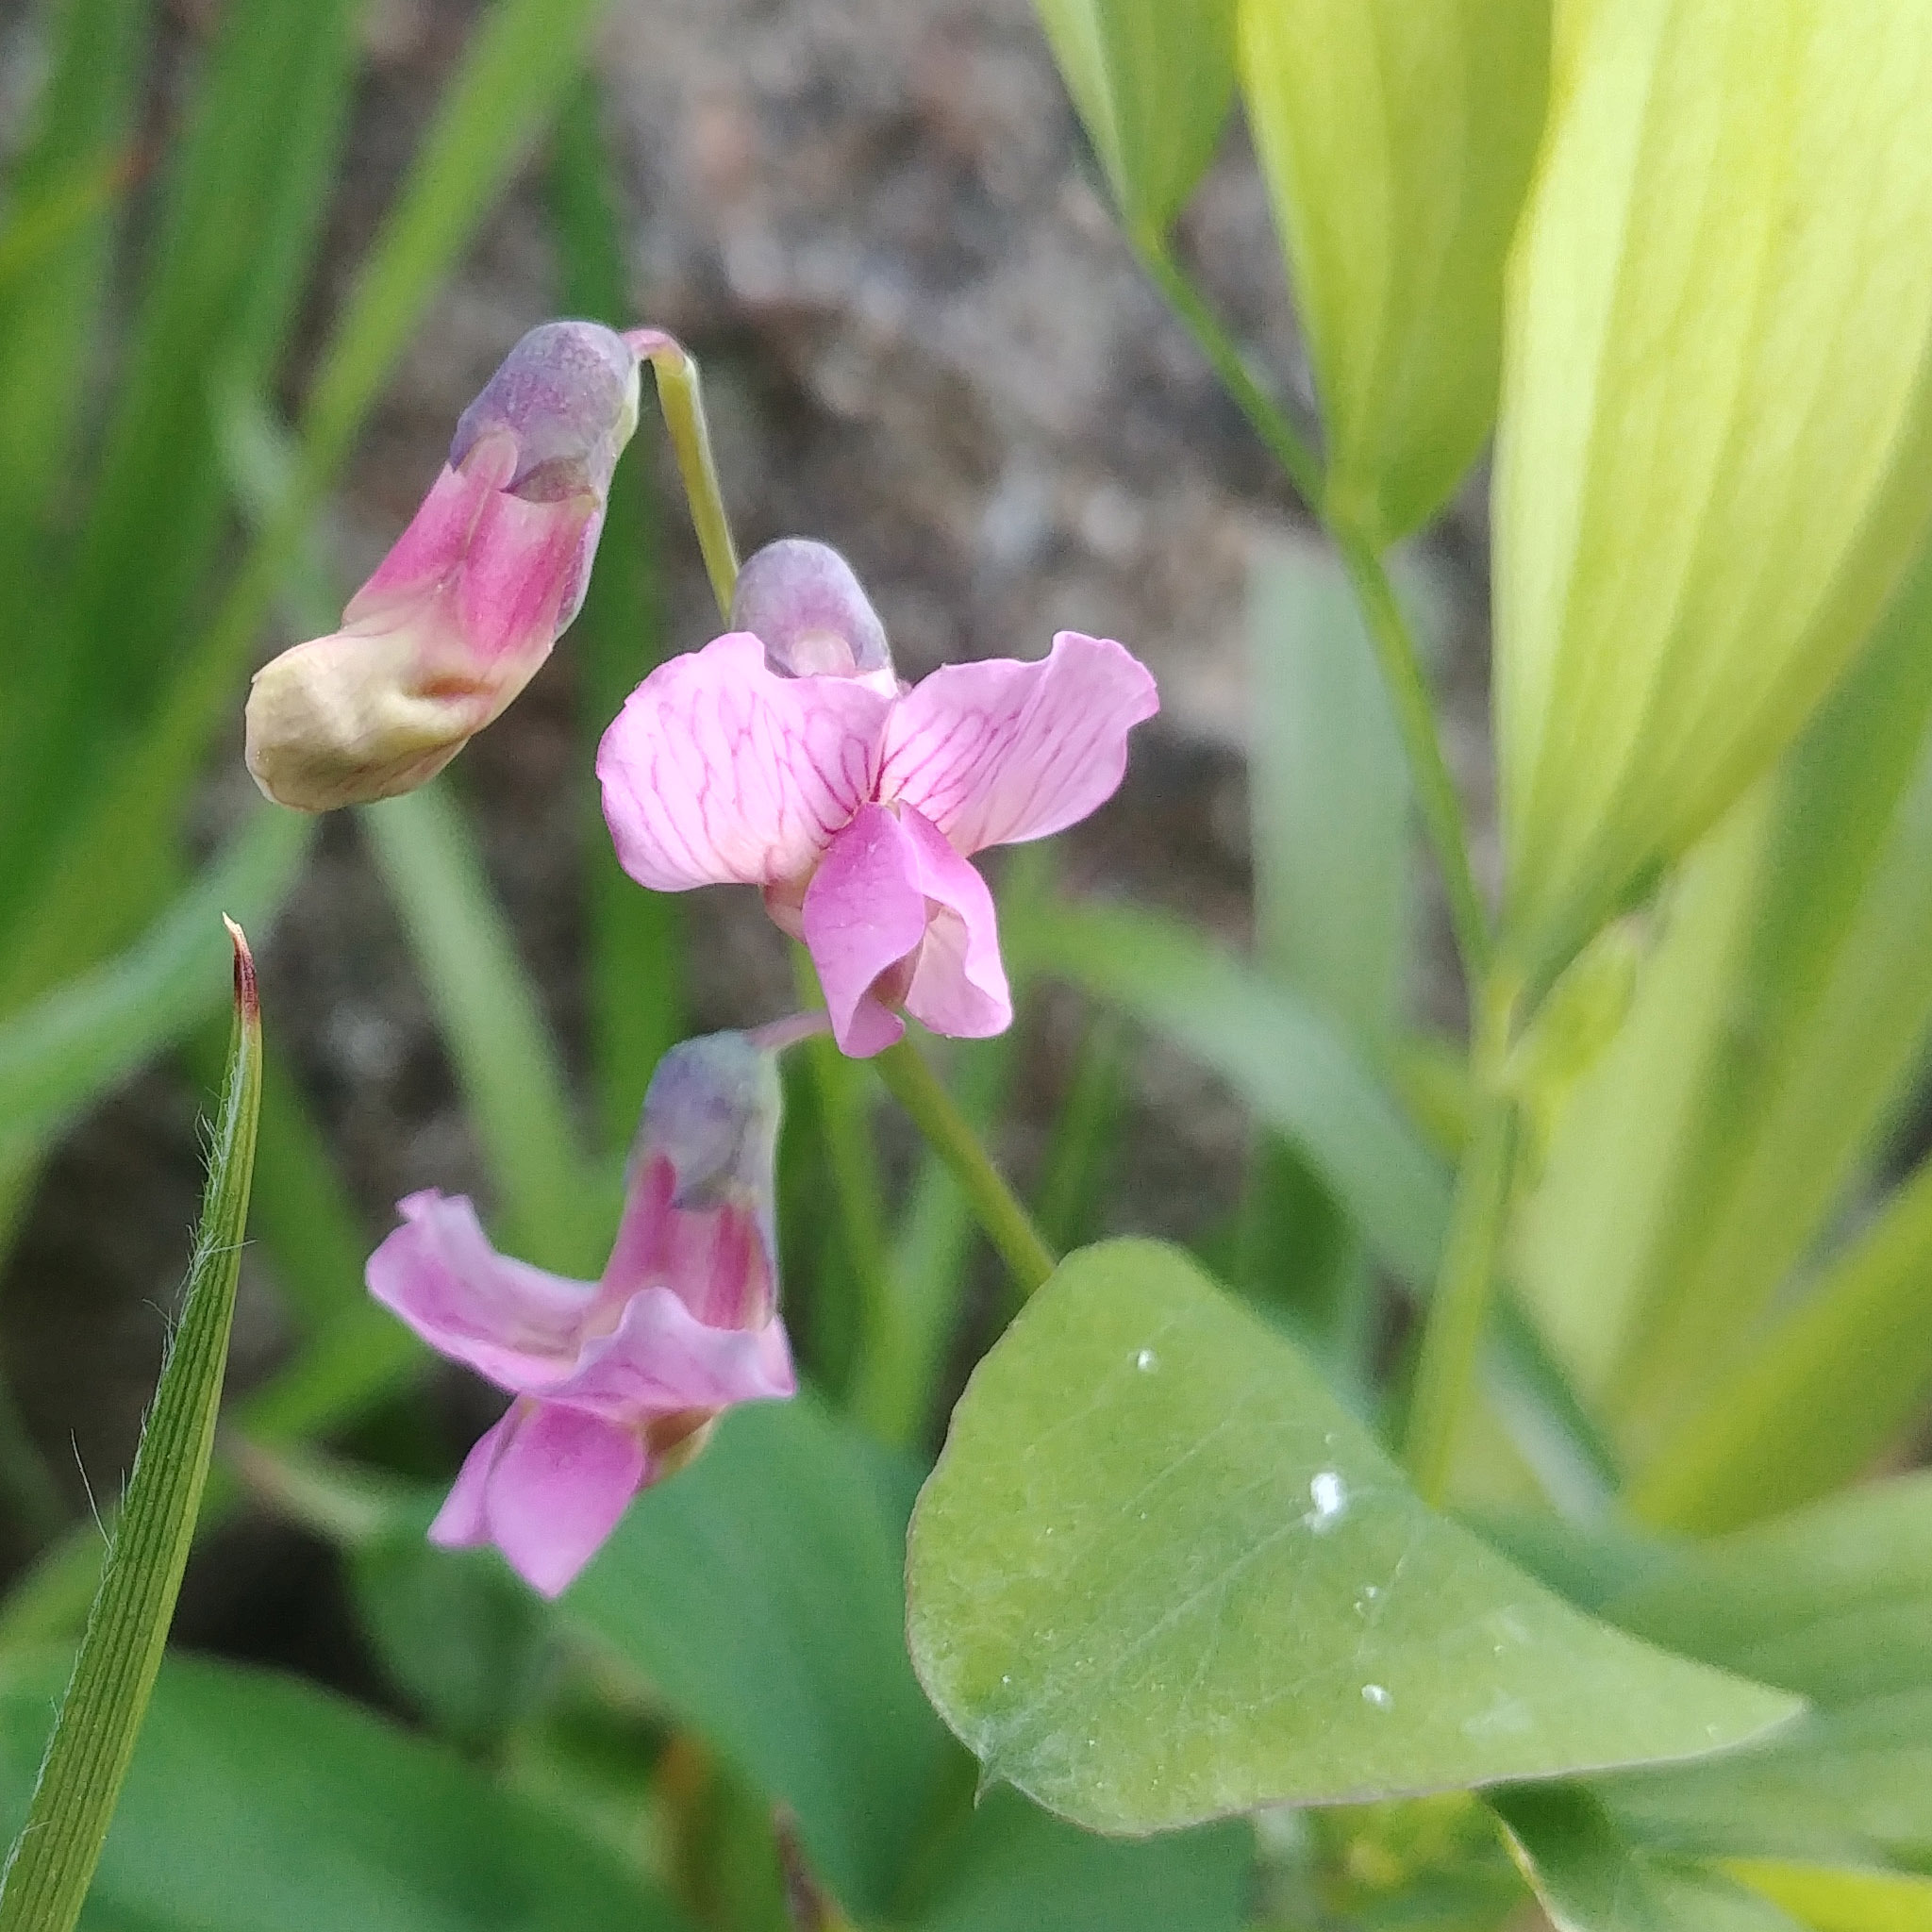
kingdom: Plantae
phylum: Tracheophyta
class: Magnoliopsida
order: Fabales
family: Fabaceae
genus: Lathyrus
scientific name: Lathyrus linifolius
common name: Bitter-vetch
